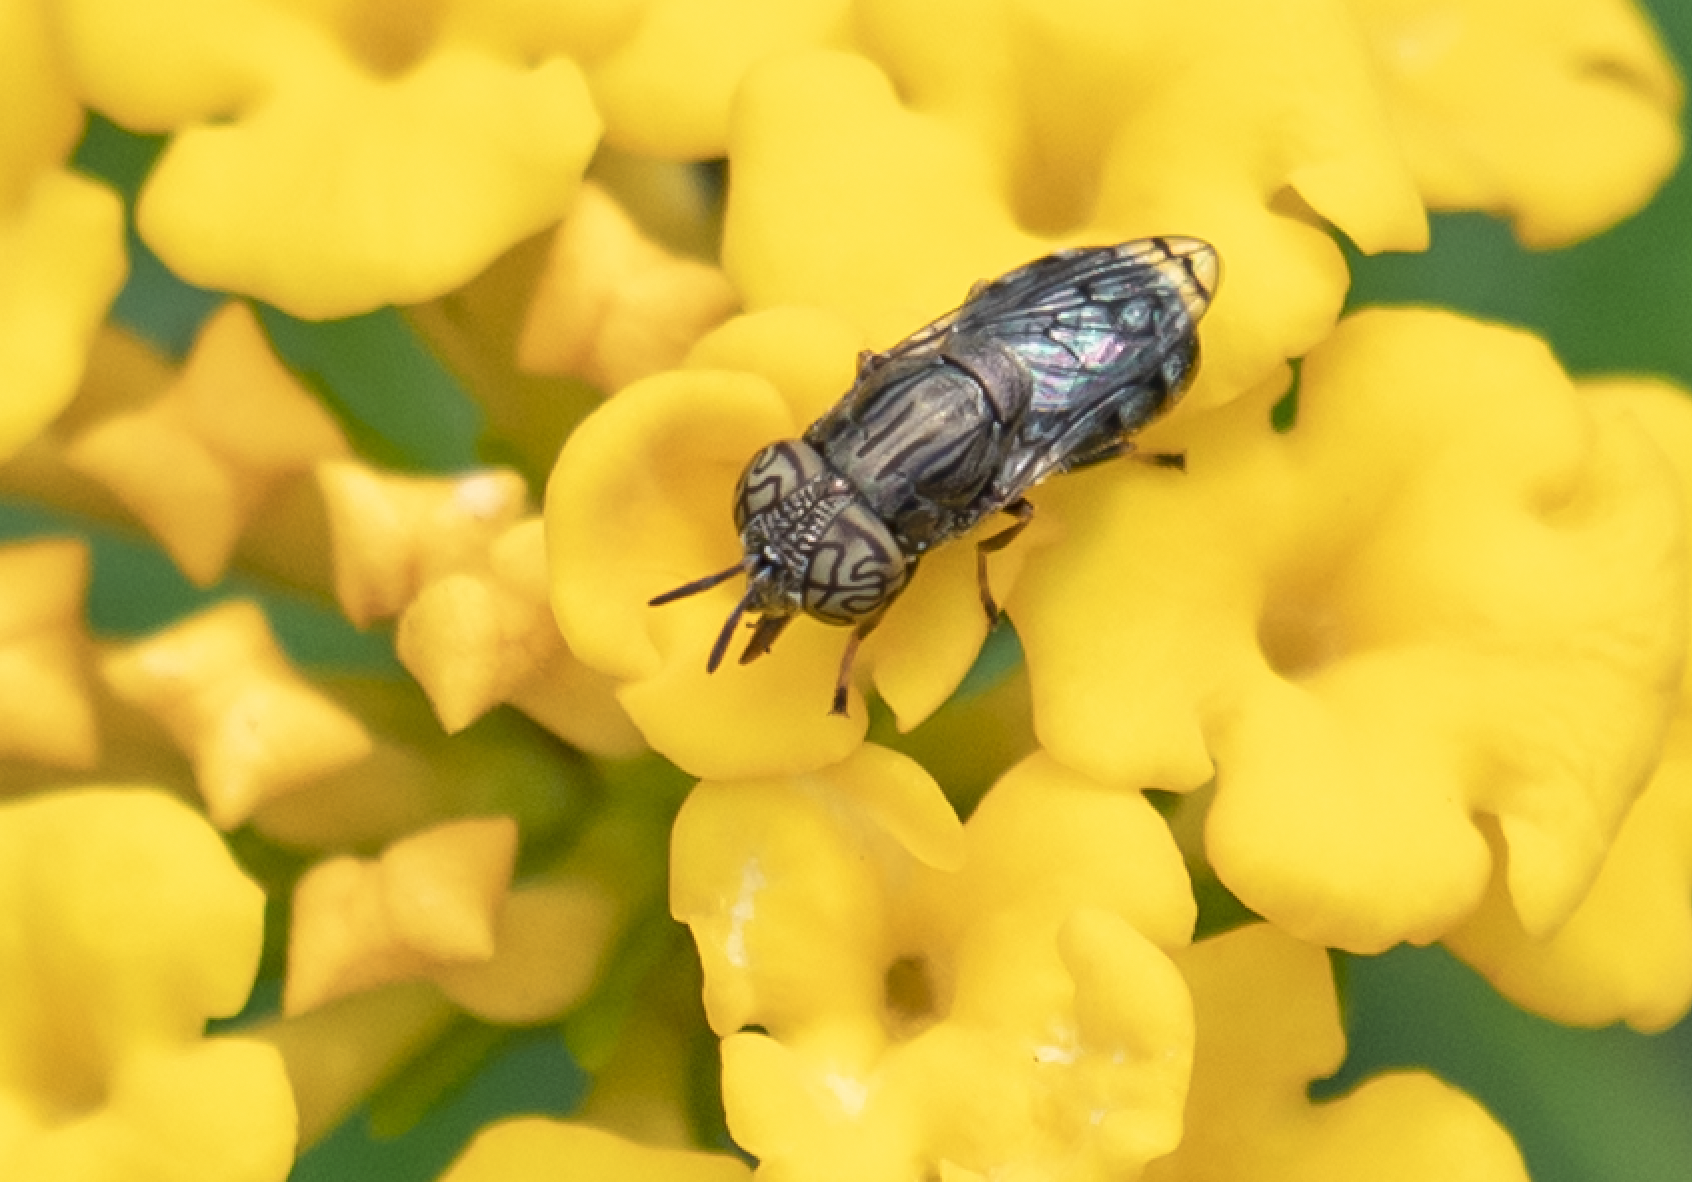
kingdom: Animalia
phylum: Arthropoda
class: Insecta
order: Diptera
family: Syrphidae
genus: Orthonevra
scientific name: Orthonevra nitida
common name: Wavy mucksucker
